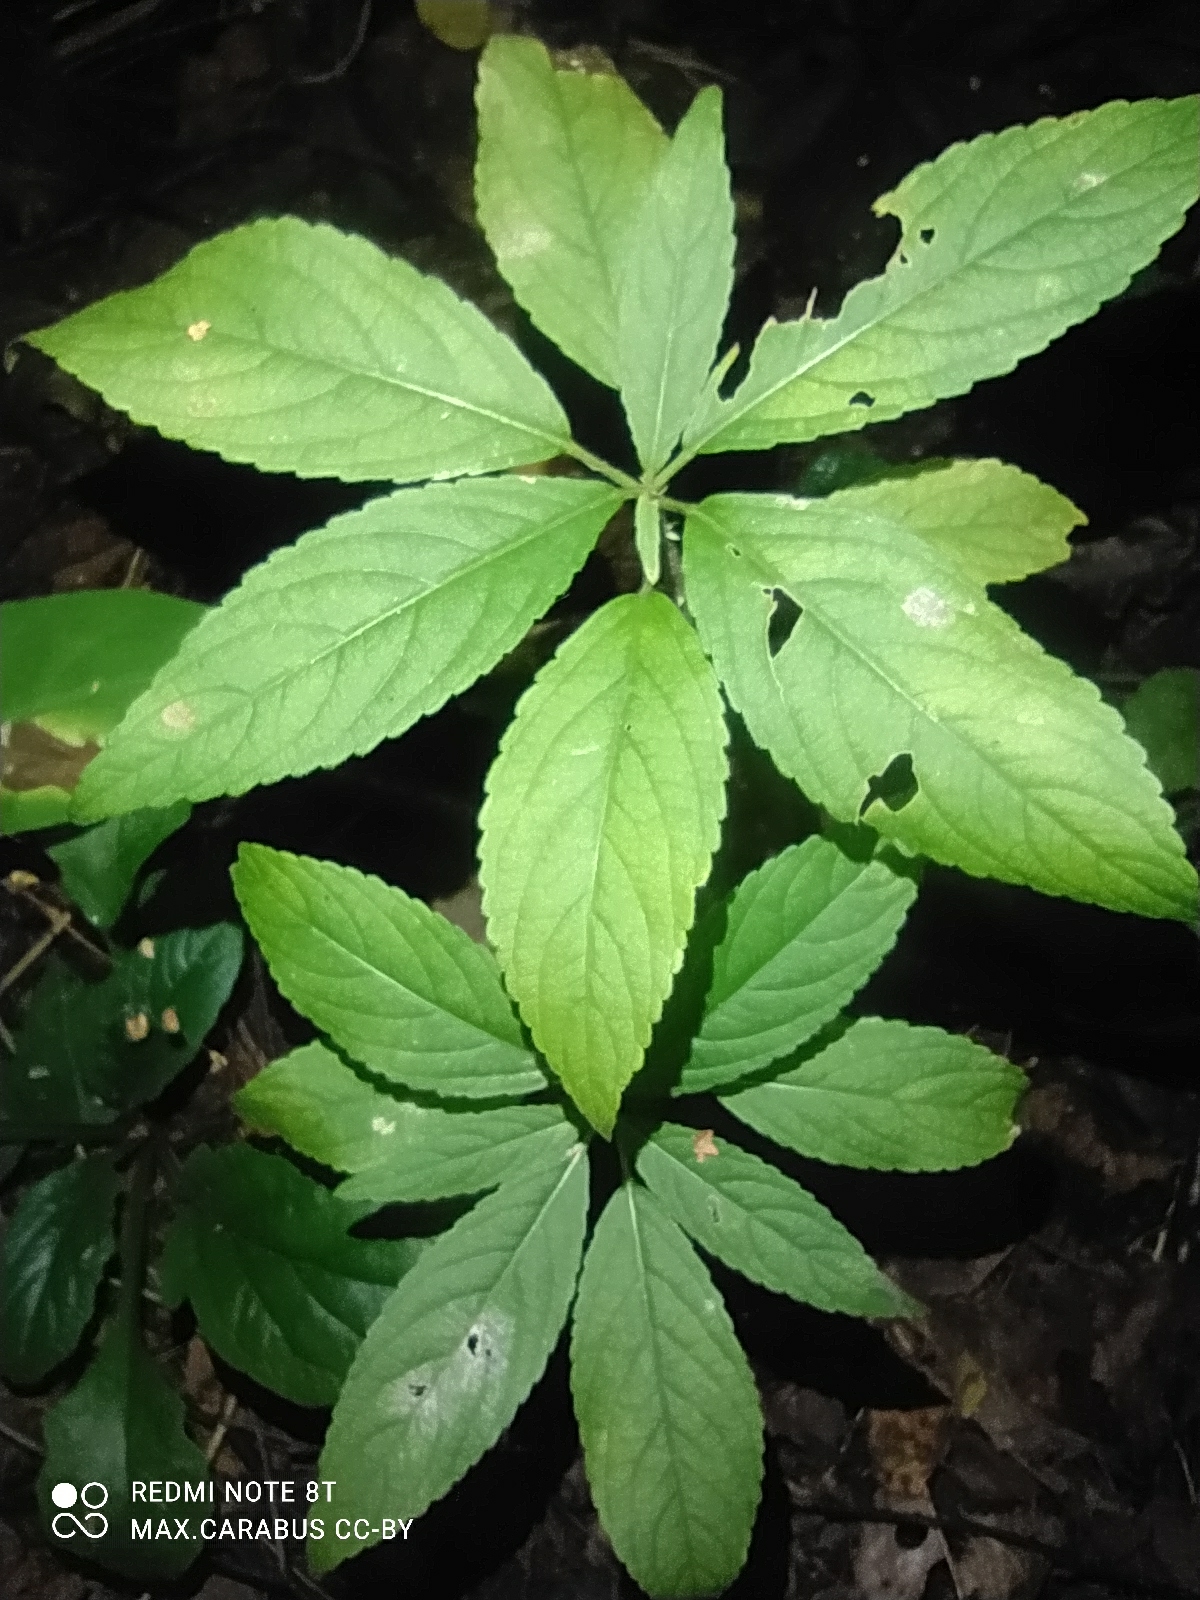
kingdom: Plantae
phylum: Tracheophyta
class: Magnoliopsida
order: Malpighiales
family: Euphorbiaceae
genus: Mercurialis
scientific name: Mercurialis perennis
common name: Dog mercury
